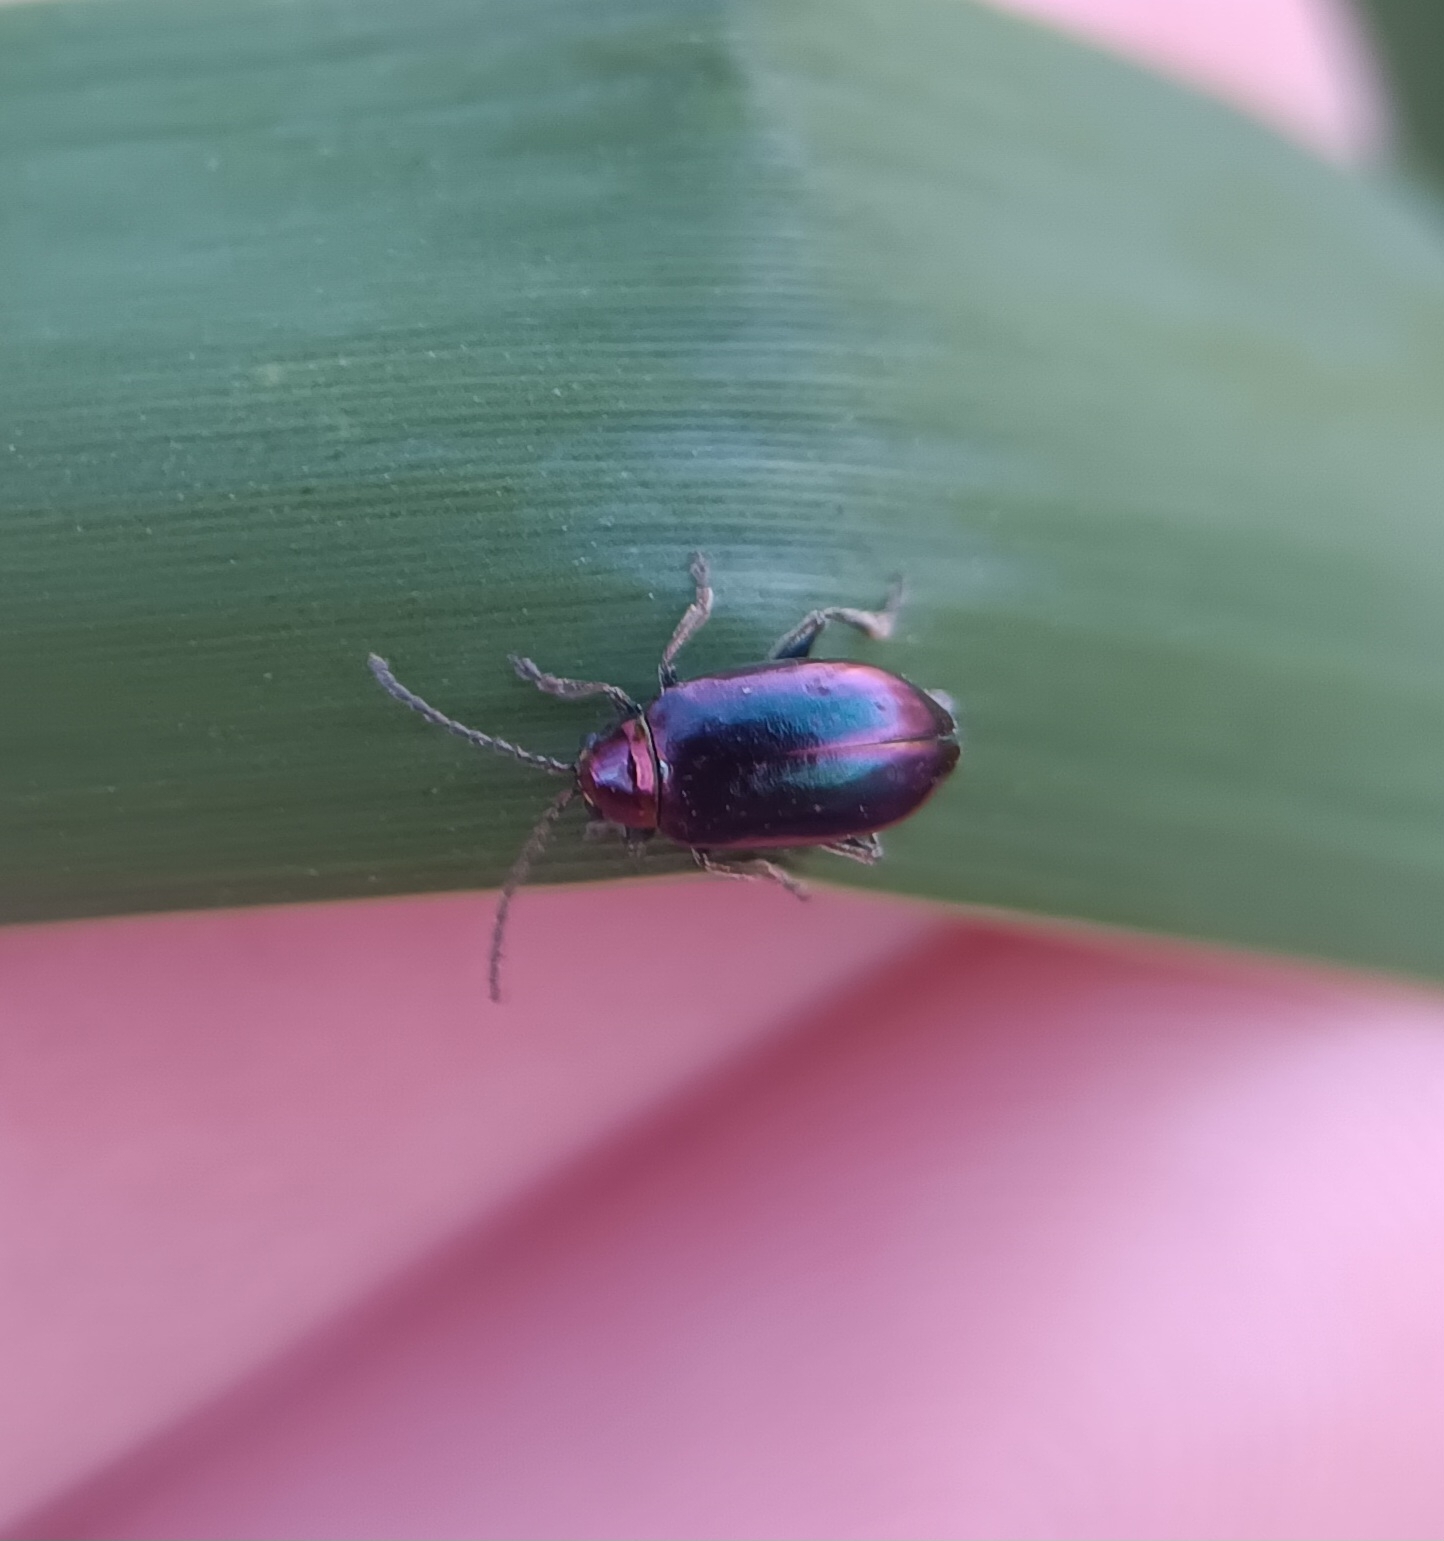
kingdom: Animalia
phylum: Arthropoda
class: Insecta
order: Coleoptera
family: Chrysomelidae
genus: Altica
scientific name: Altica torquata
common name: Leaf beetle
